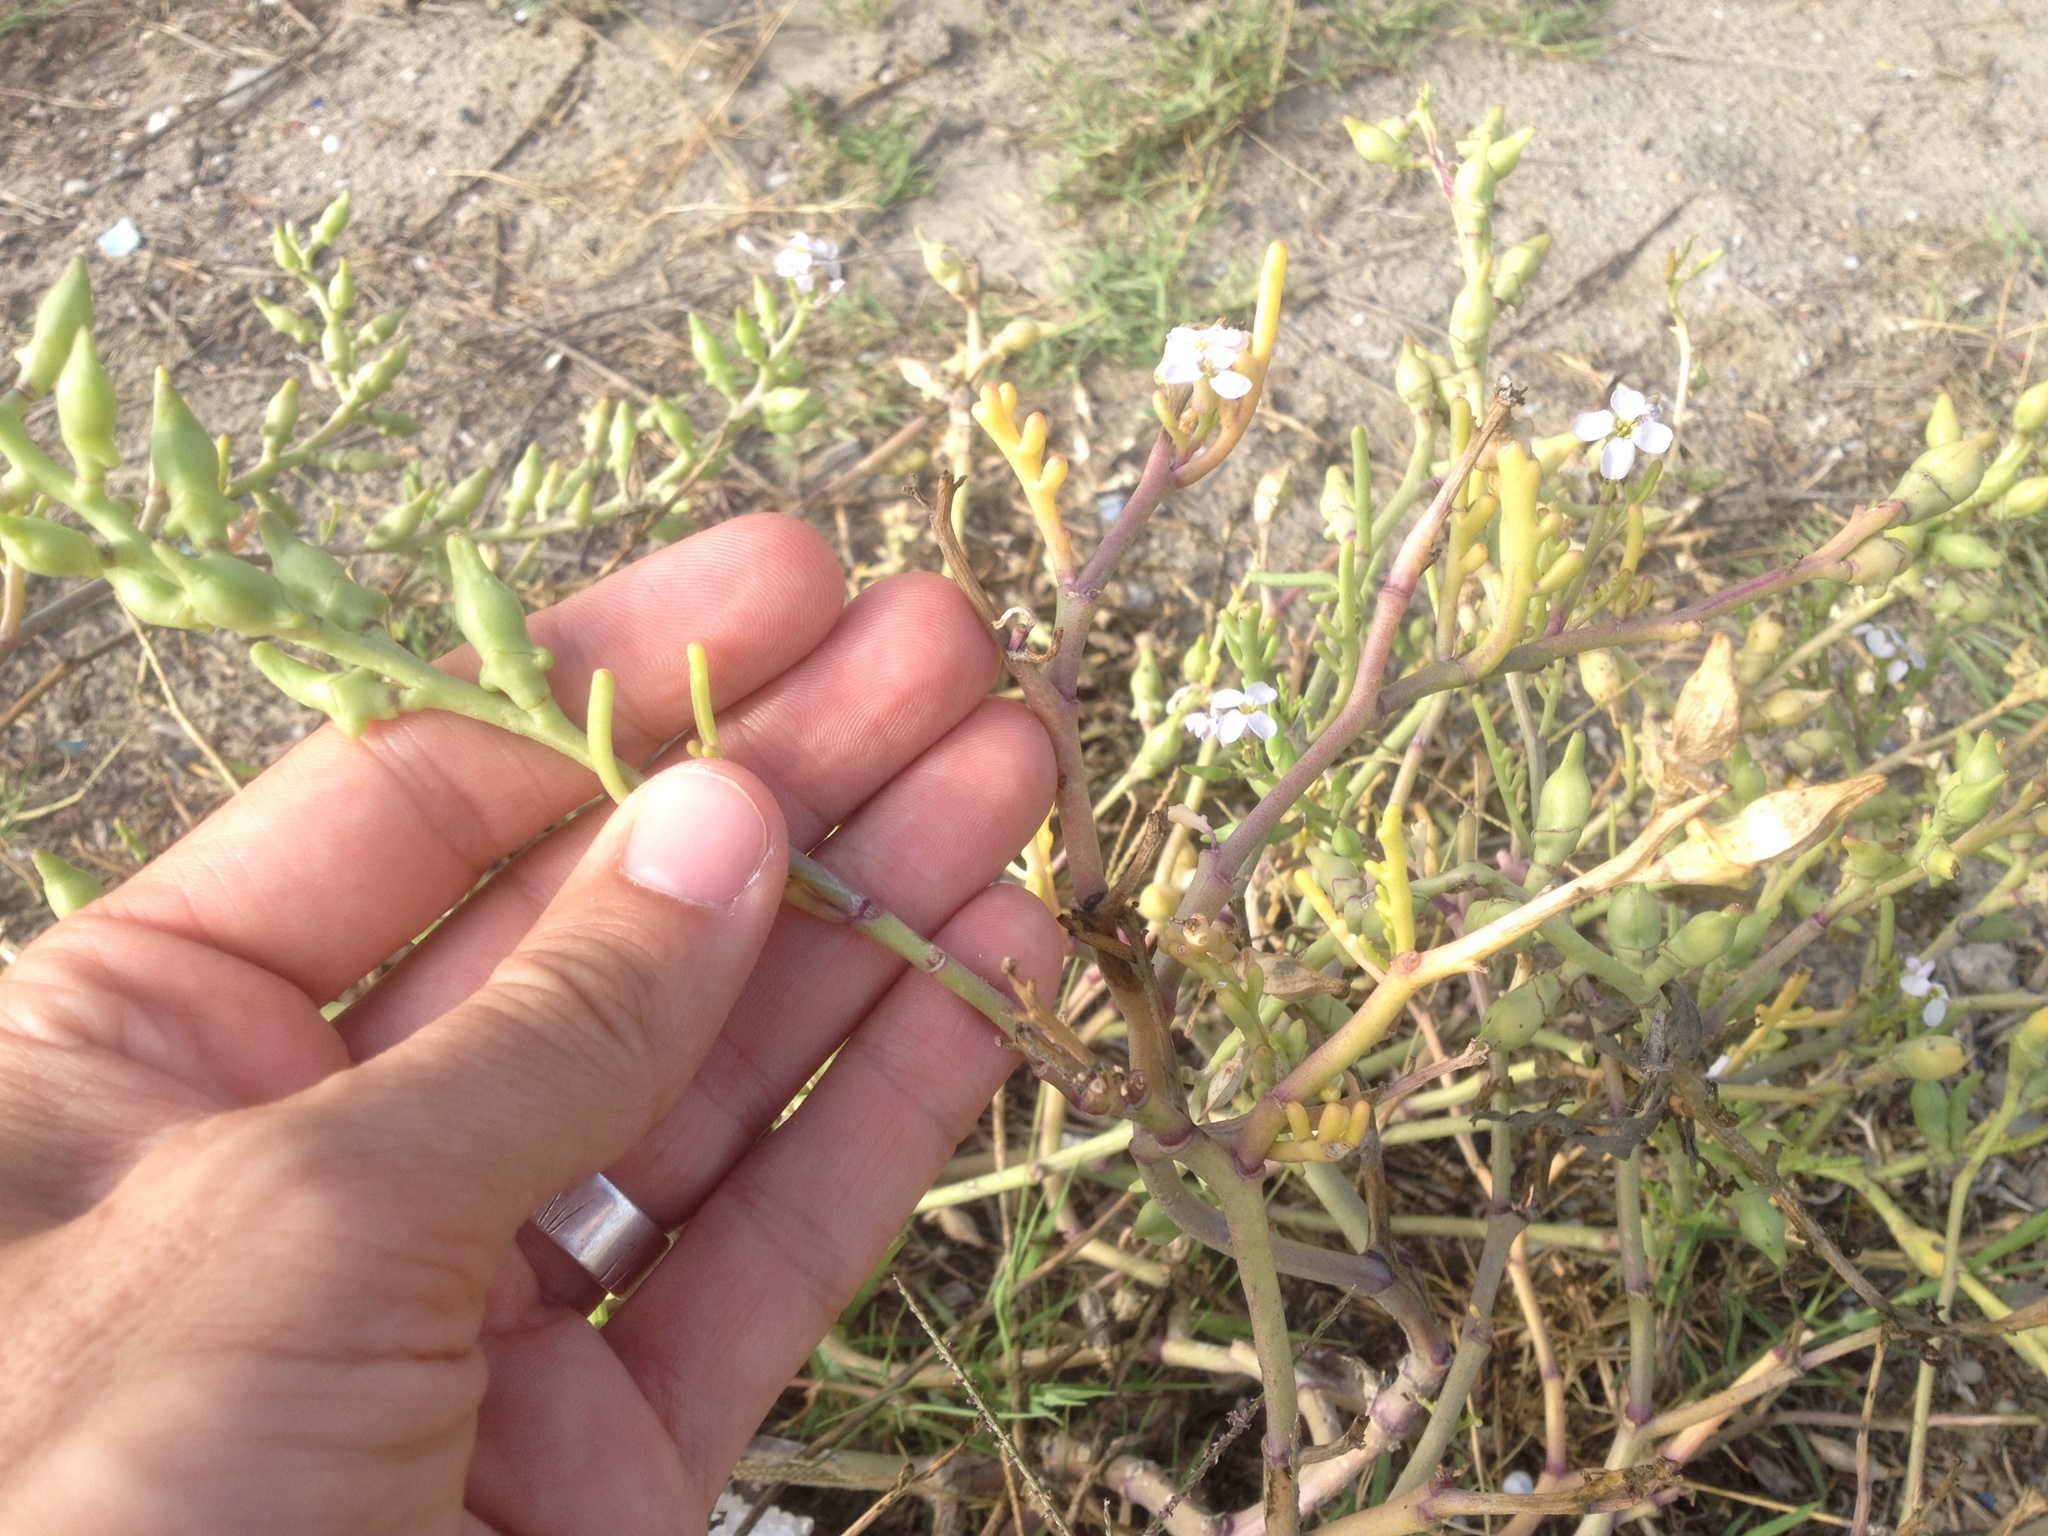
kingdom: Plantae
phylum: Tracheophyta
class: Magnoliopsida
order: Brassicales
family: Brassicaceae
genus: Cakile
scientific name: Cakile maritima
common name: Sea rocket
